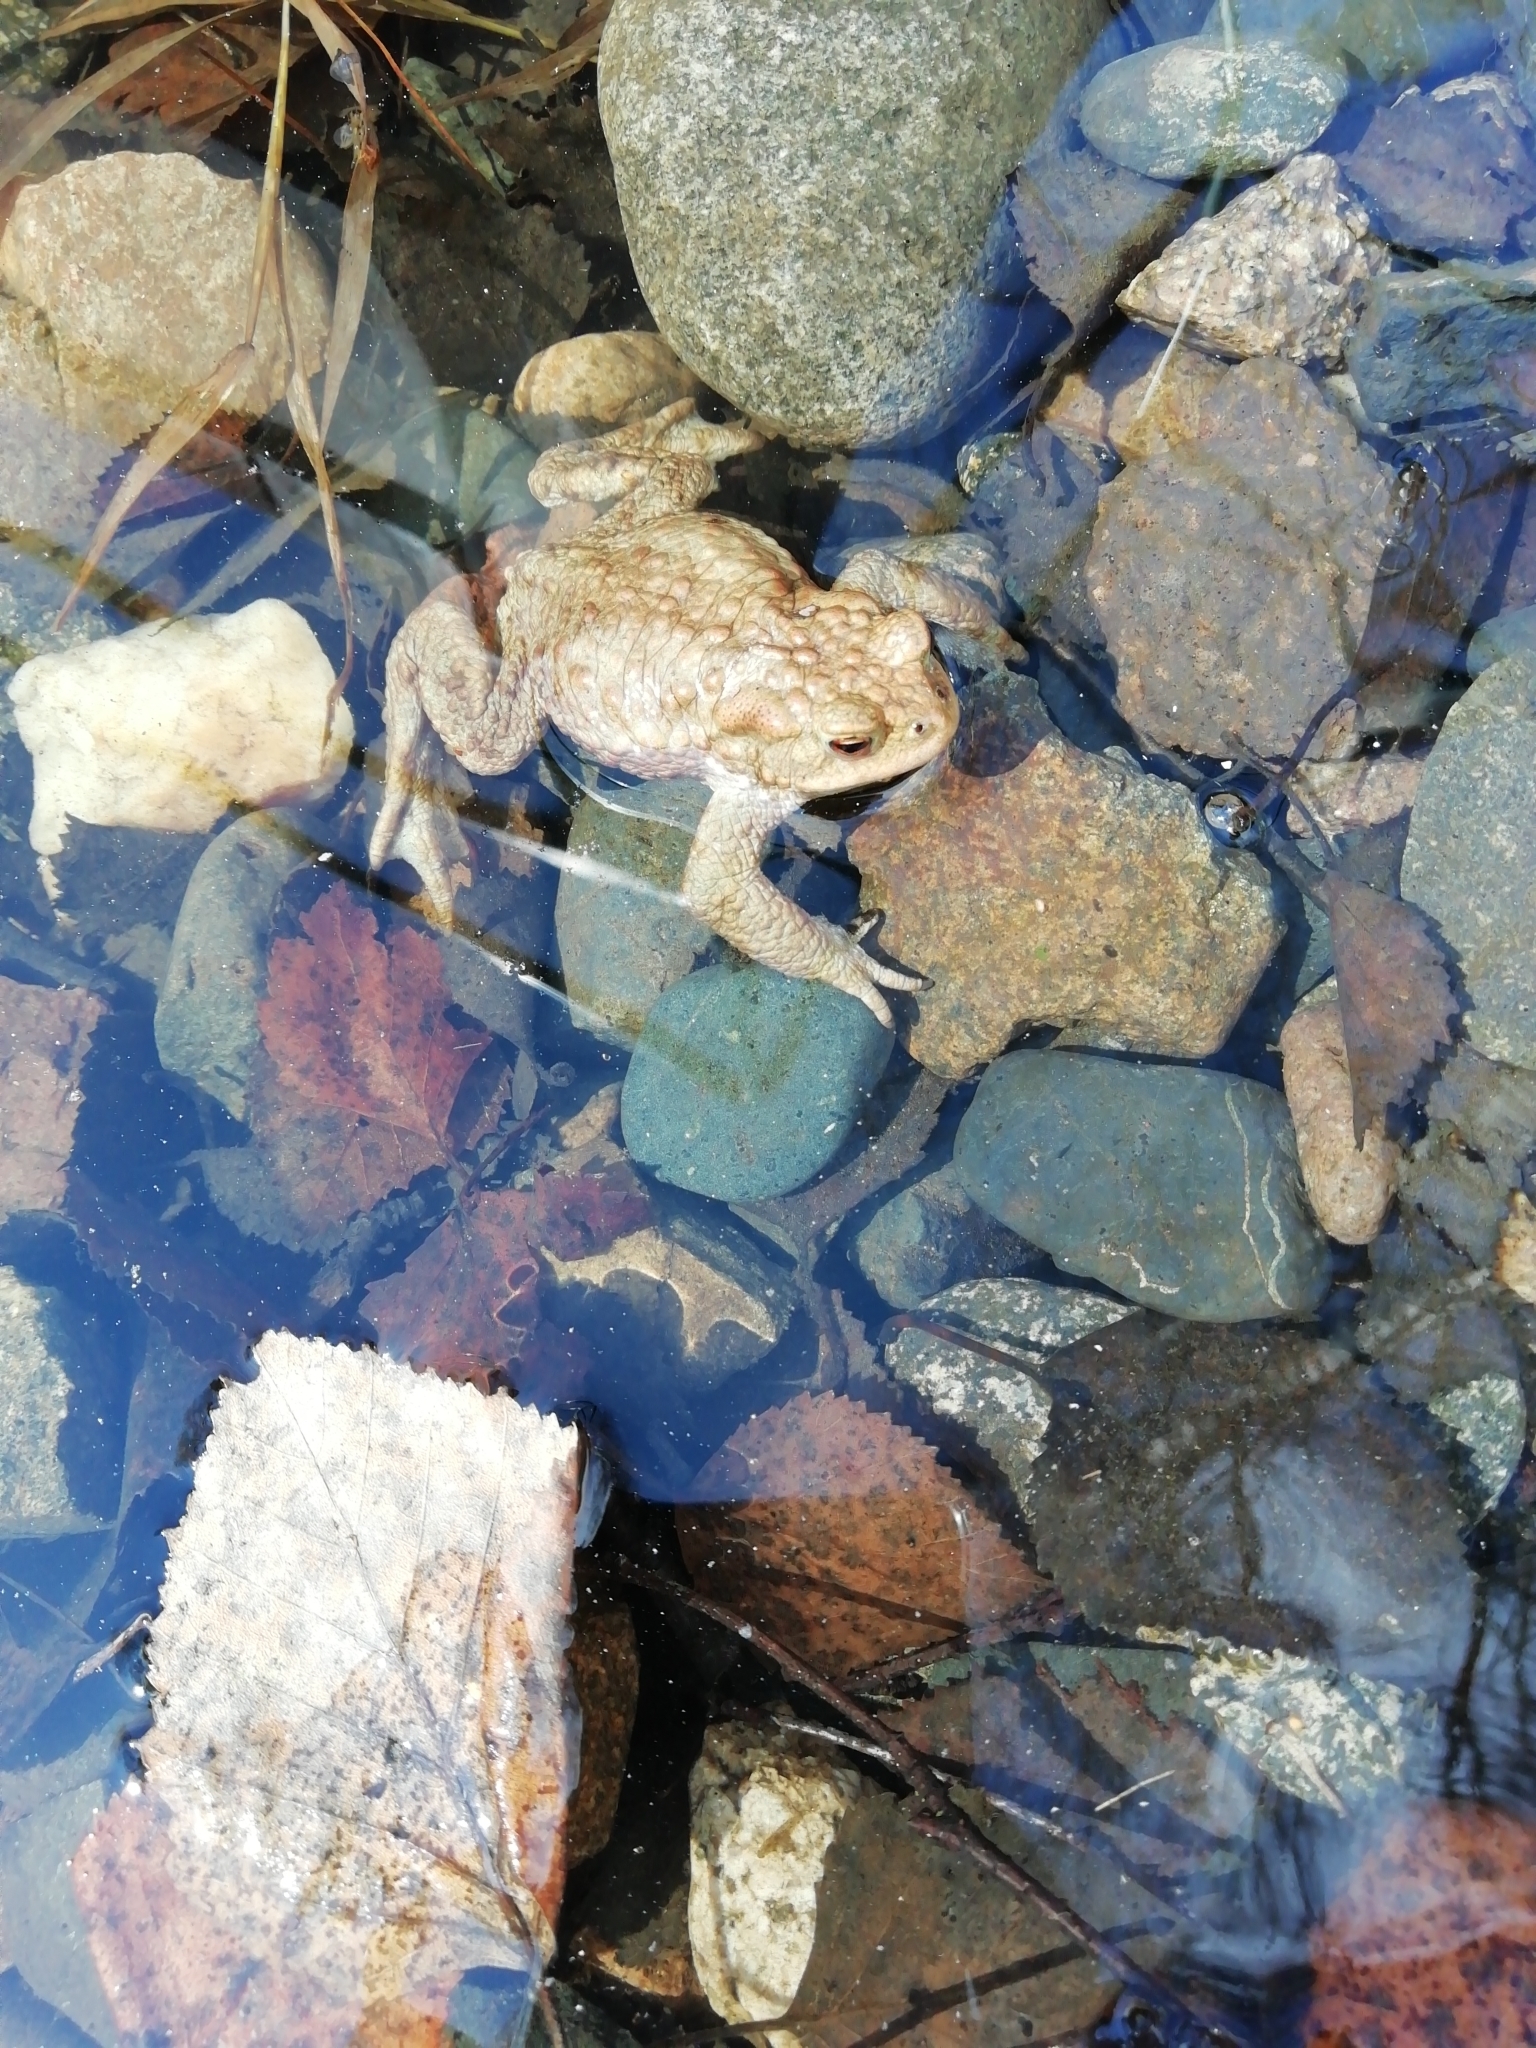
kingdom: Animalia
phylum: Chordata
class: Amphibia
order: Anura
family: Bufonidae
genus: Bufo
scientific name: Bufo bufo
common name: Common toad
